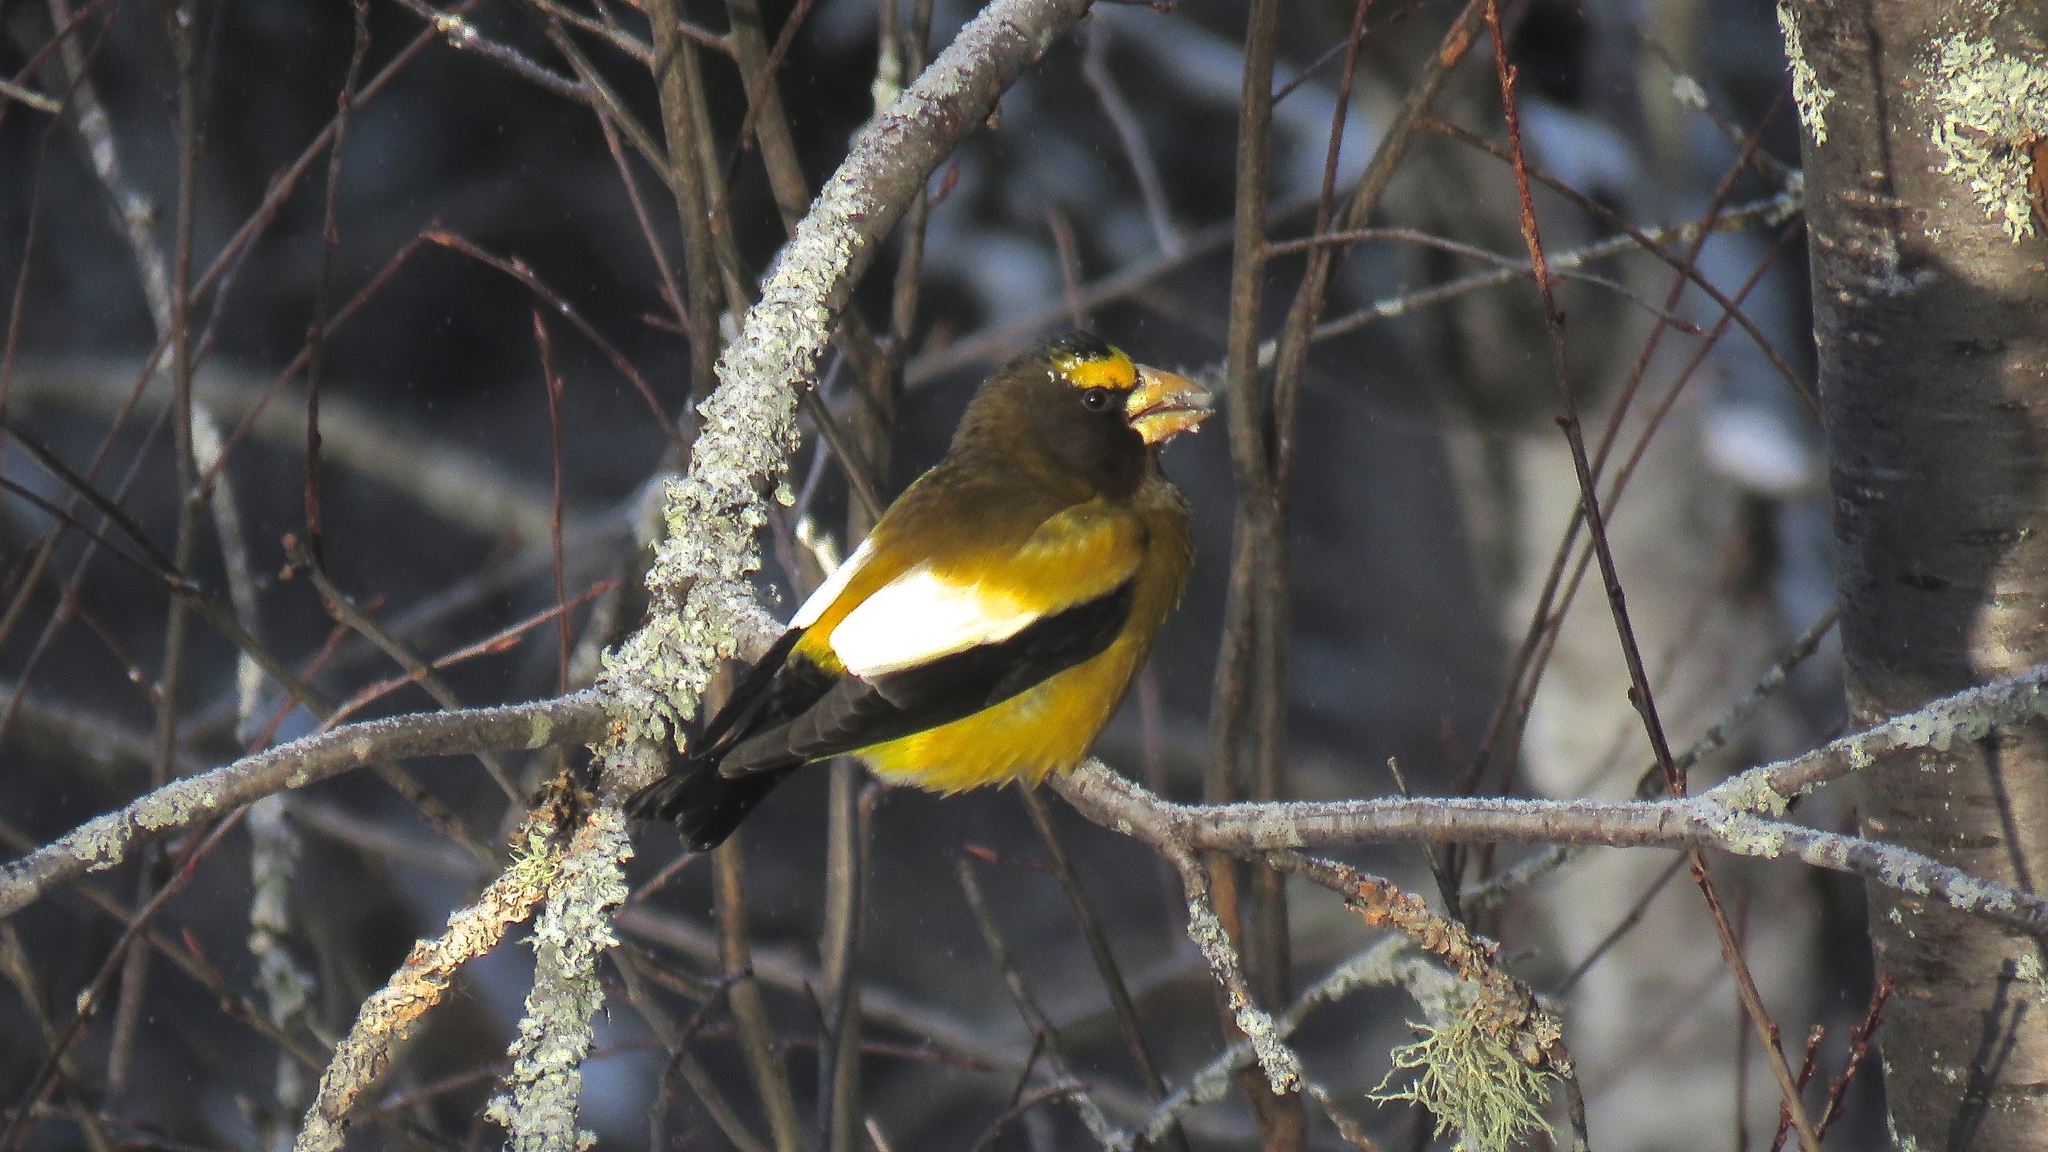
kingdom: Animalia
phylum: Chordata
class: Aves
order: Passeriformes
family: Fringillidae
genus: Hesperiphona
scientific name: Hesperiphona vespertina
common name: Evening grosbeak
